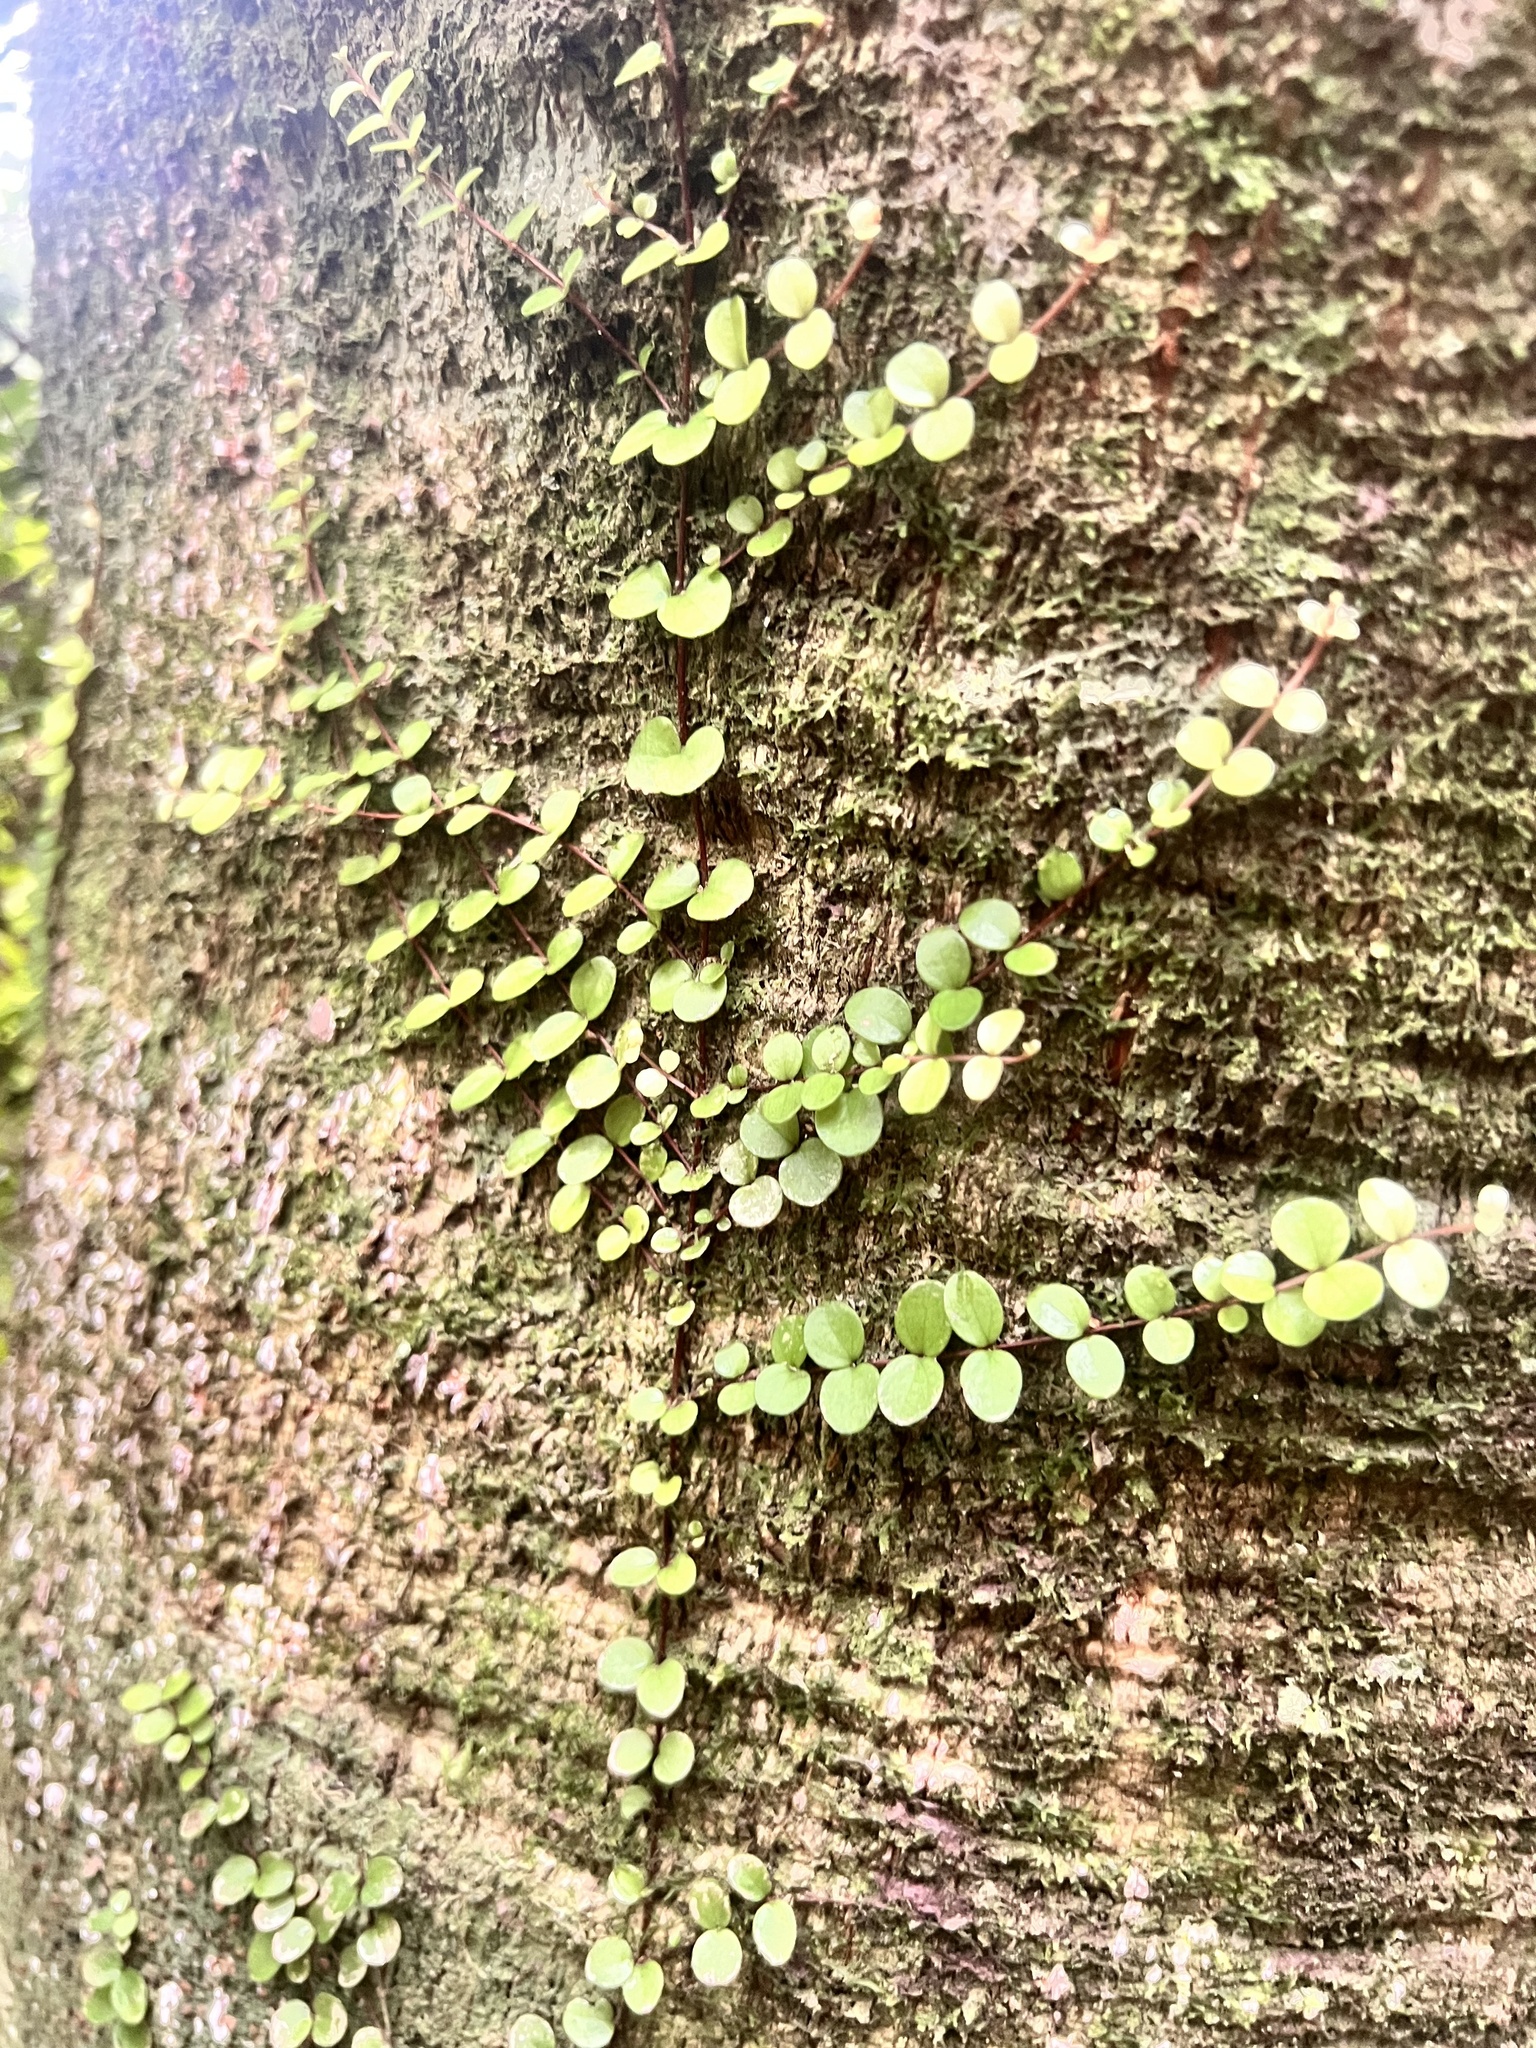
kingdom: Plantae
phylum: Tracheophyta
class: Magnoliopsida
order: Myrtales
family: Myrtaceae
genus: Metrosideros
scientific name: Metrosideros perforata
